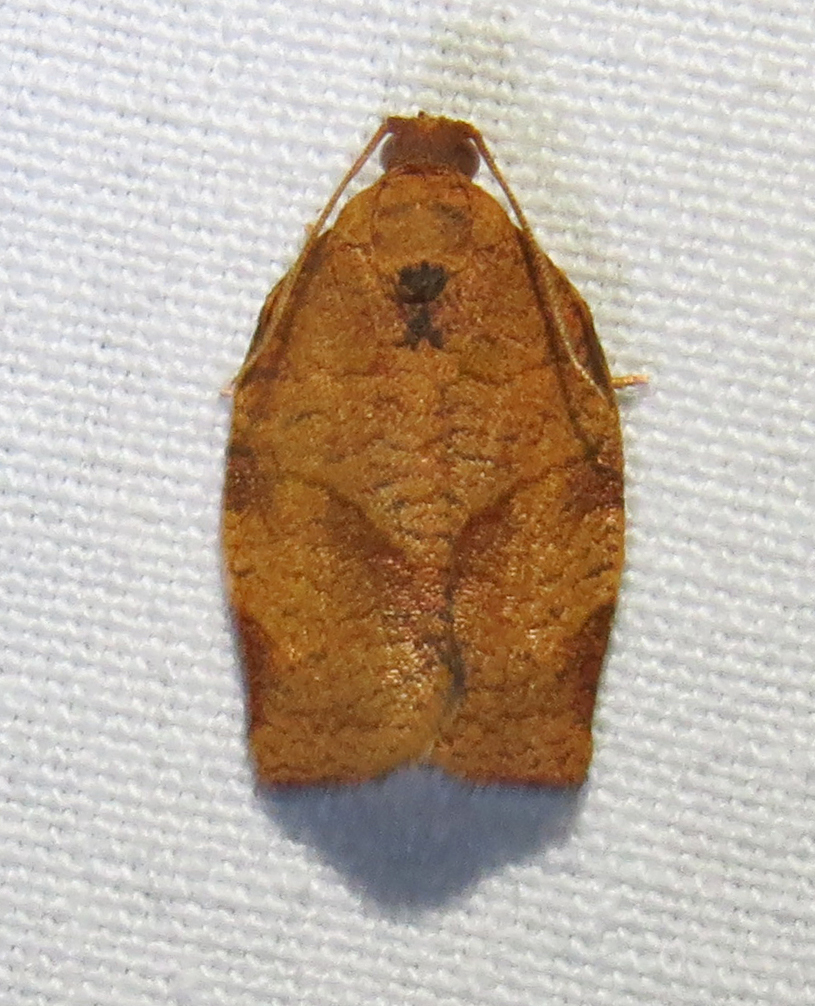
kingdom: Animalia
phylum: Arthropoda
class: Insecta
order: Lepidoptera
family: Tortricidae
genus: Choristoneura
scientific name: Choristoneura rosaceana
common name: Oblique-banded leafroller moth
